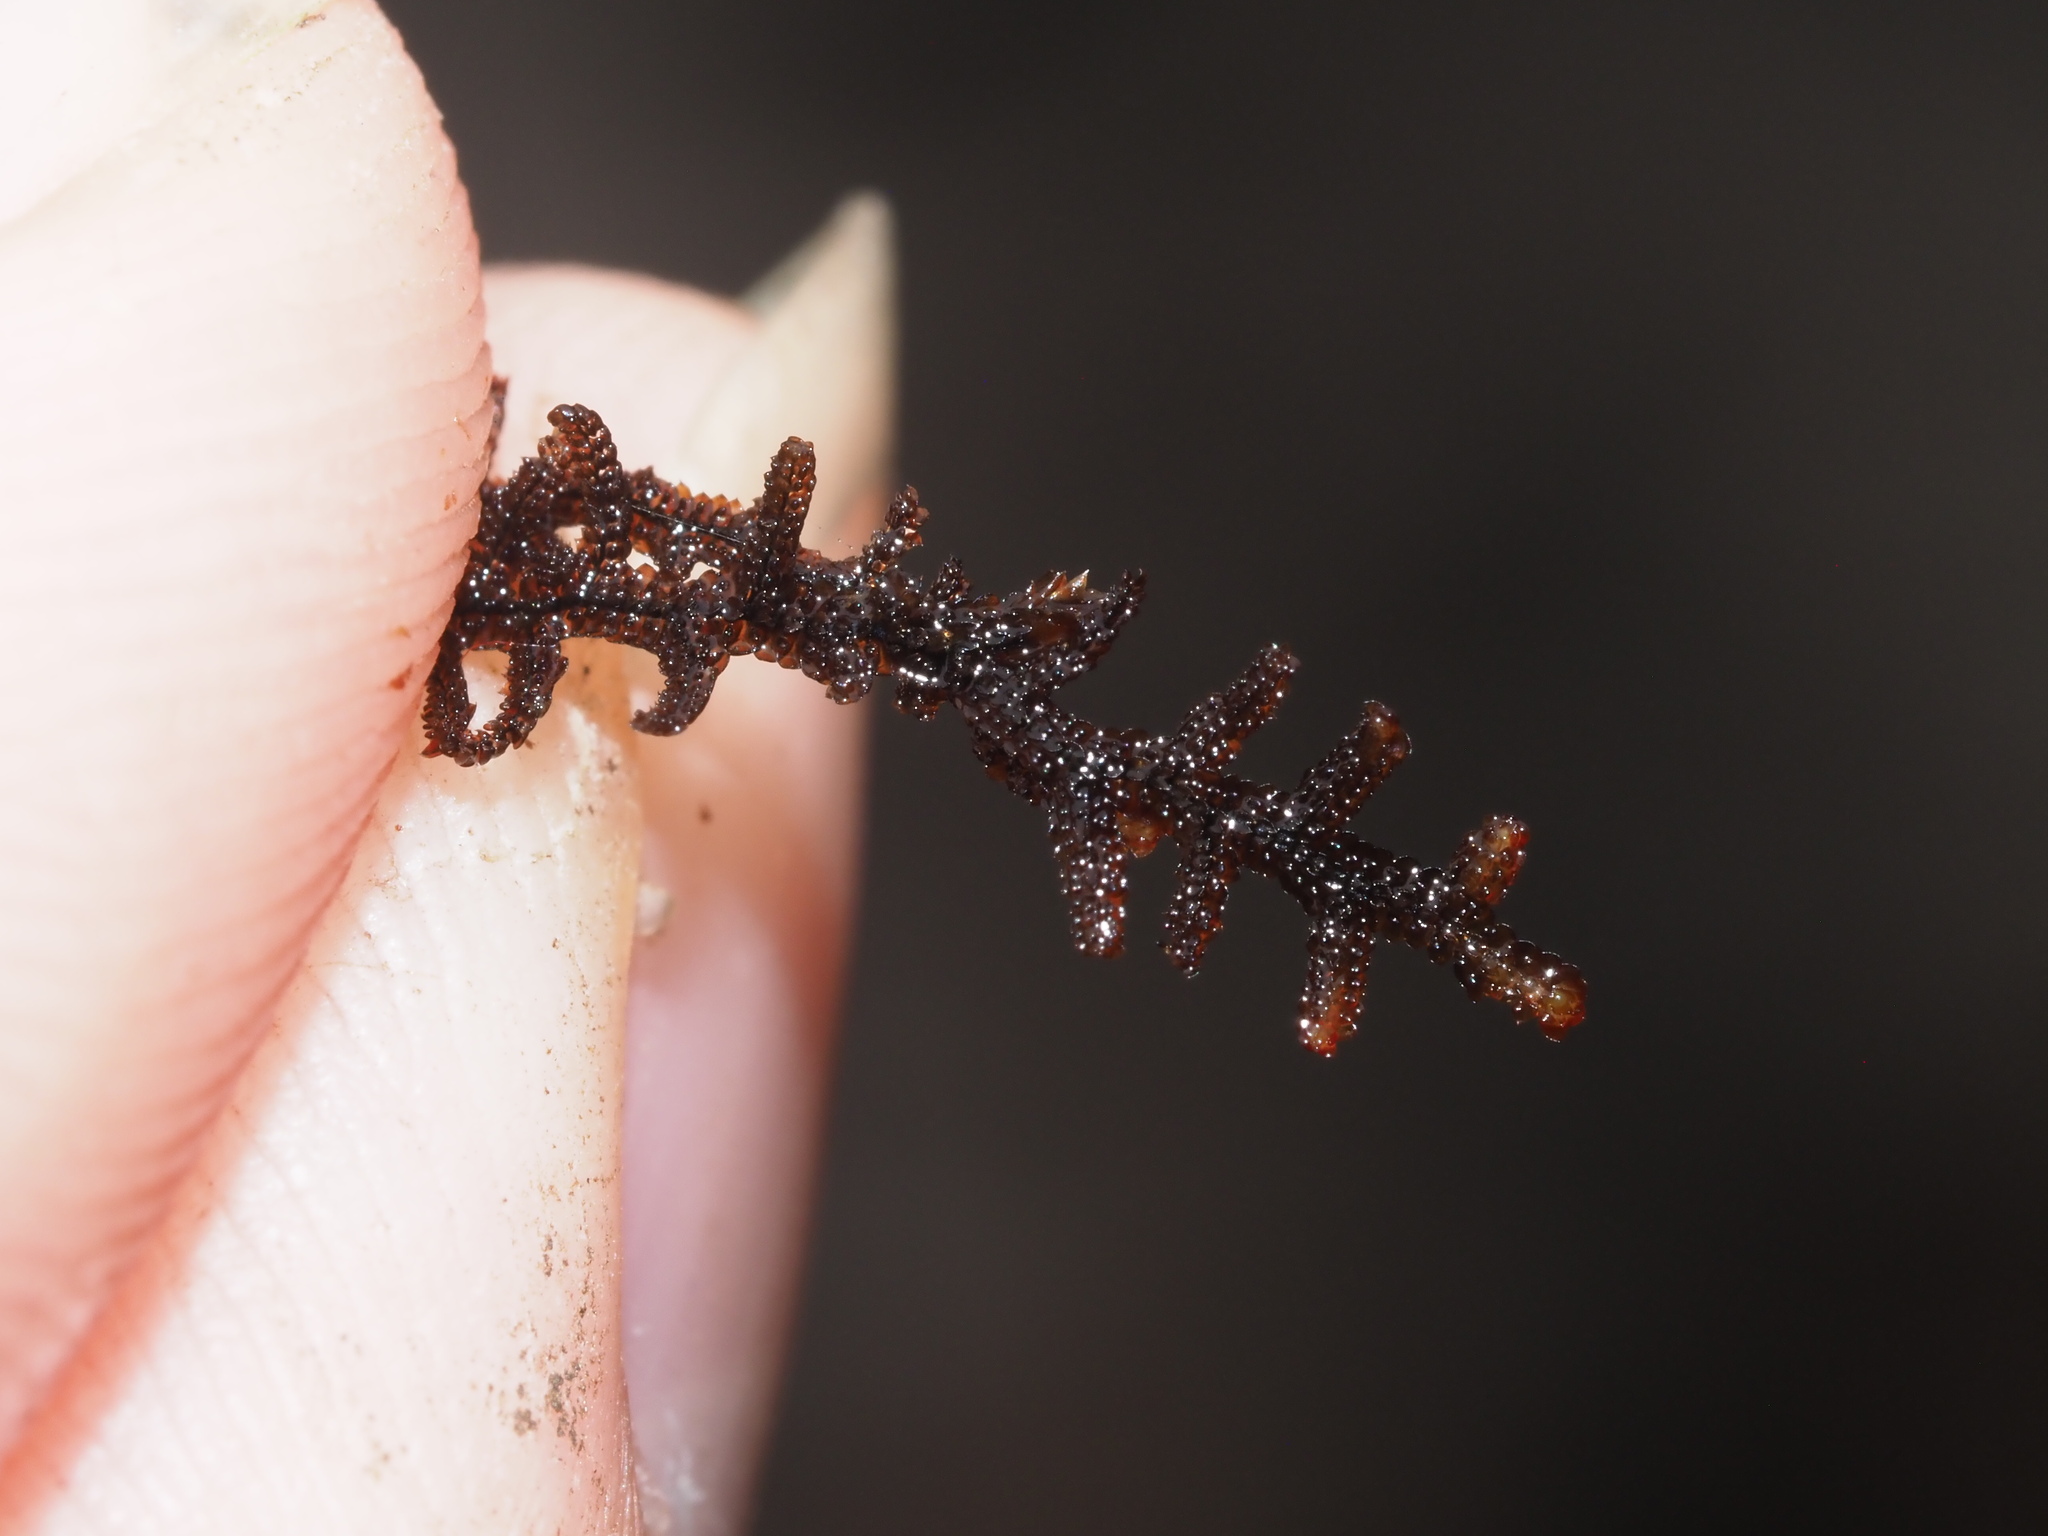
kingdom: Plantae
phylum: Marchantiophyta
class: Jungermanniopsida
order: Porellales
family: Frullaniaceae
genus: Frullania
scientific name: Frullania apiculata
